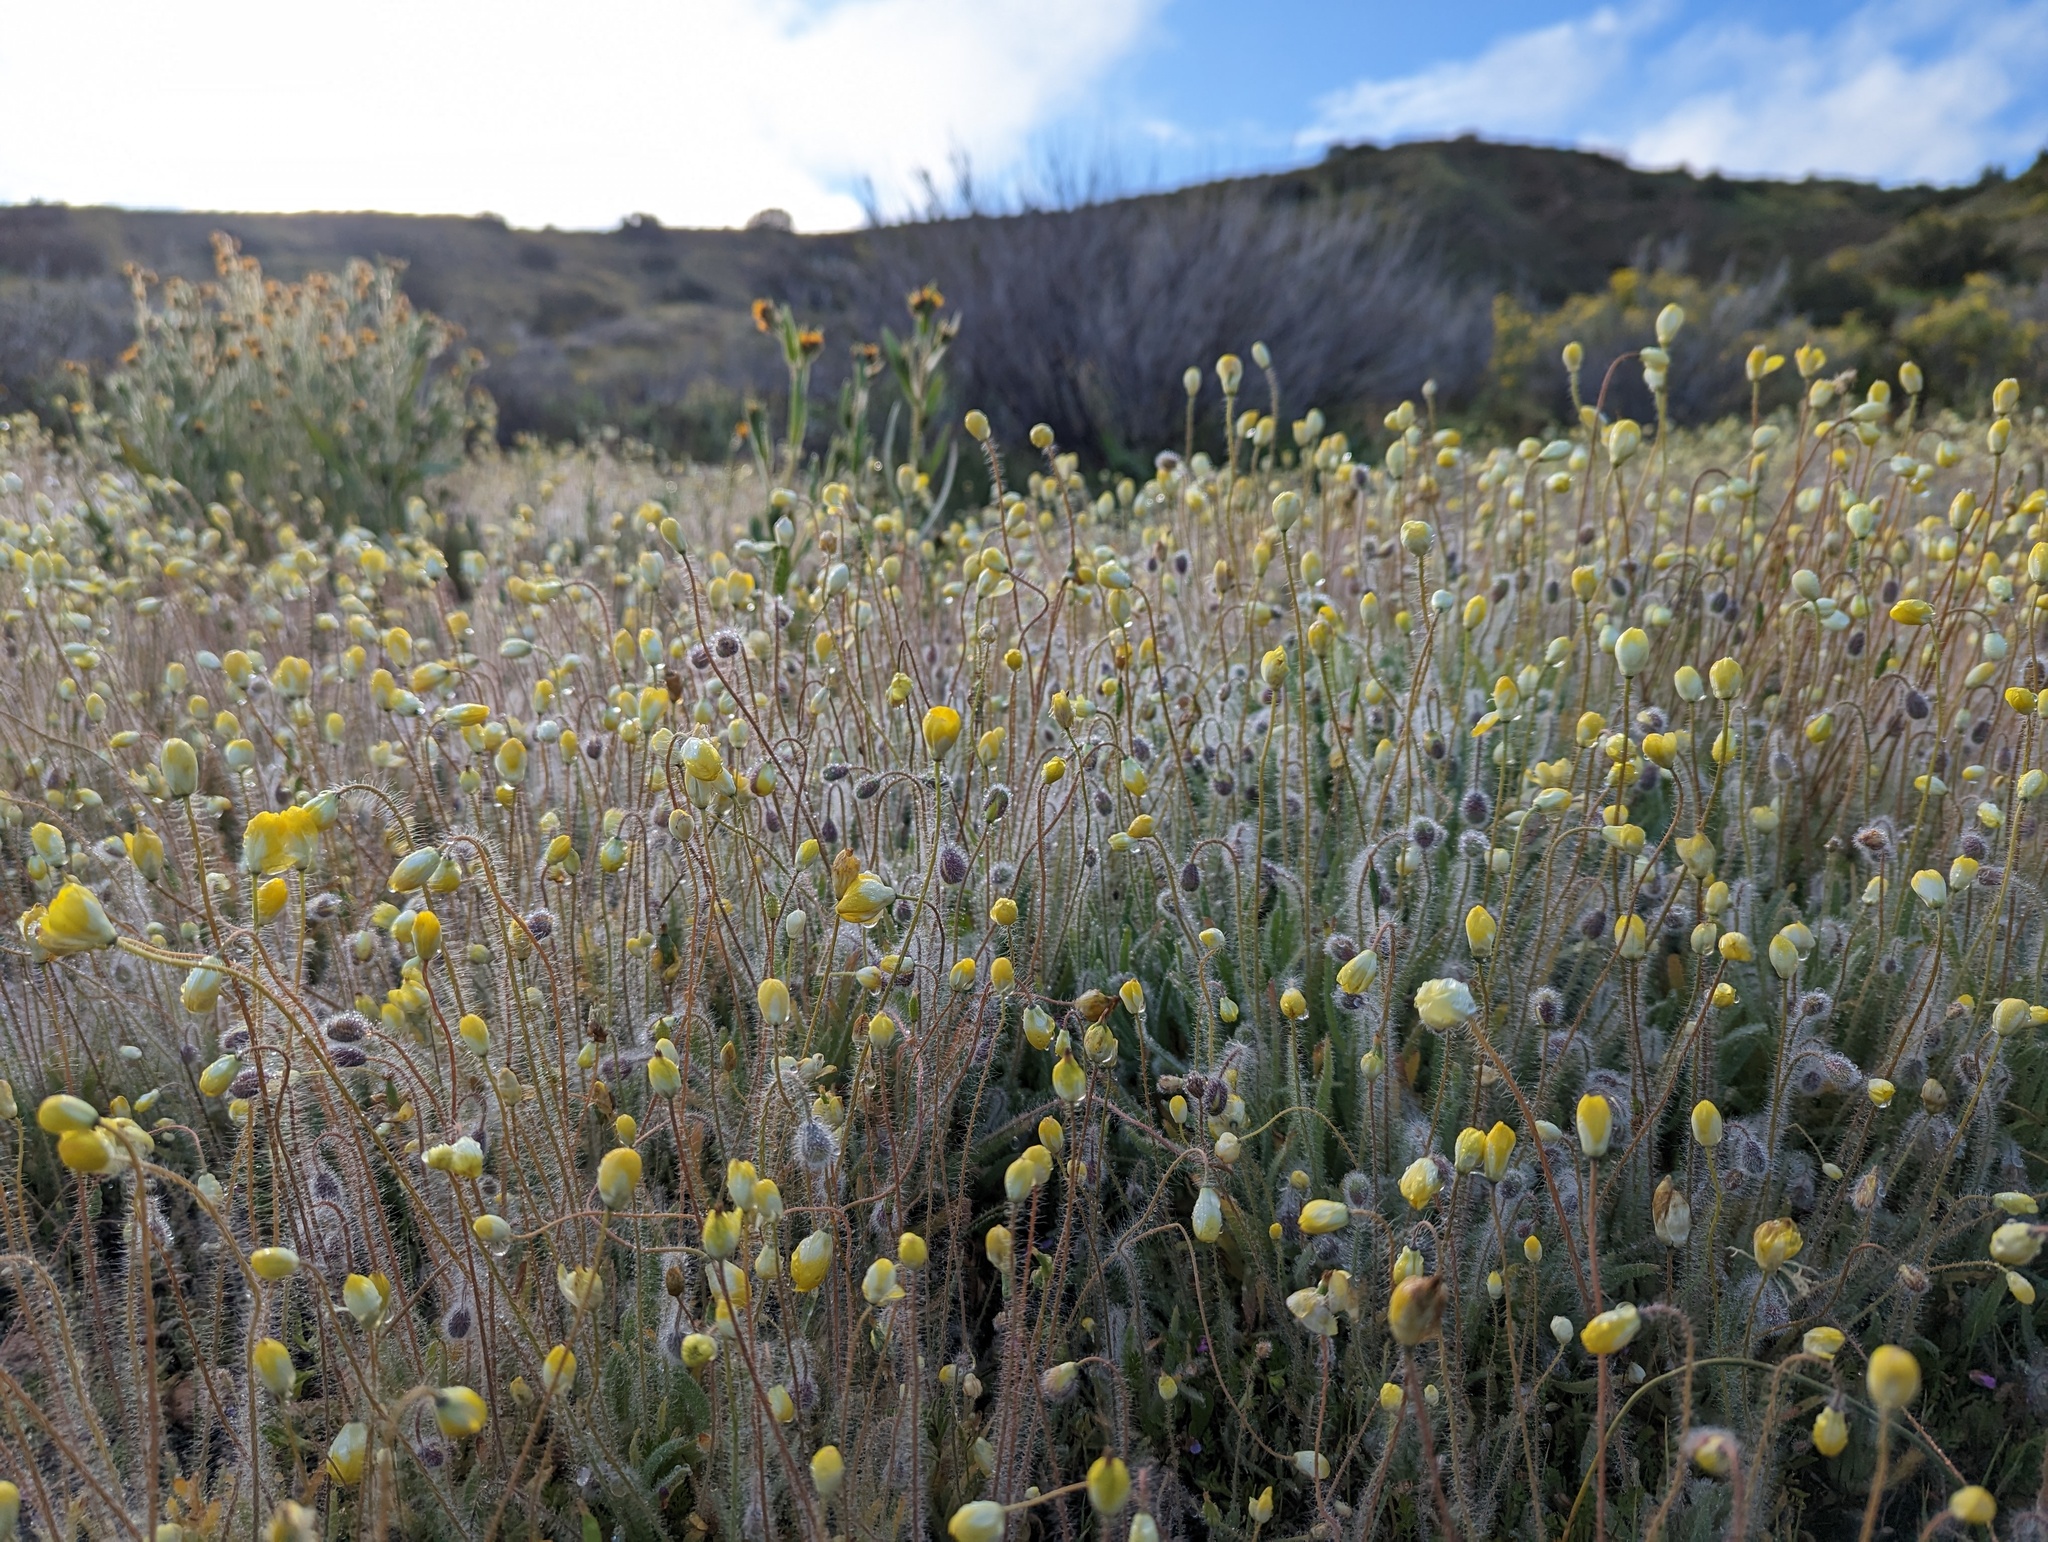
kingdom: Plantae
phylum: Tracheophyta
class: Magnoliopsida
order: Ranunculales
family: Papaveraceae
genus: Platystemon
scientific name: Platystemon californicus
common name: Cream-cups
